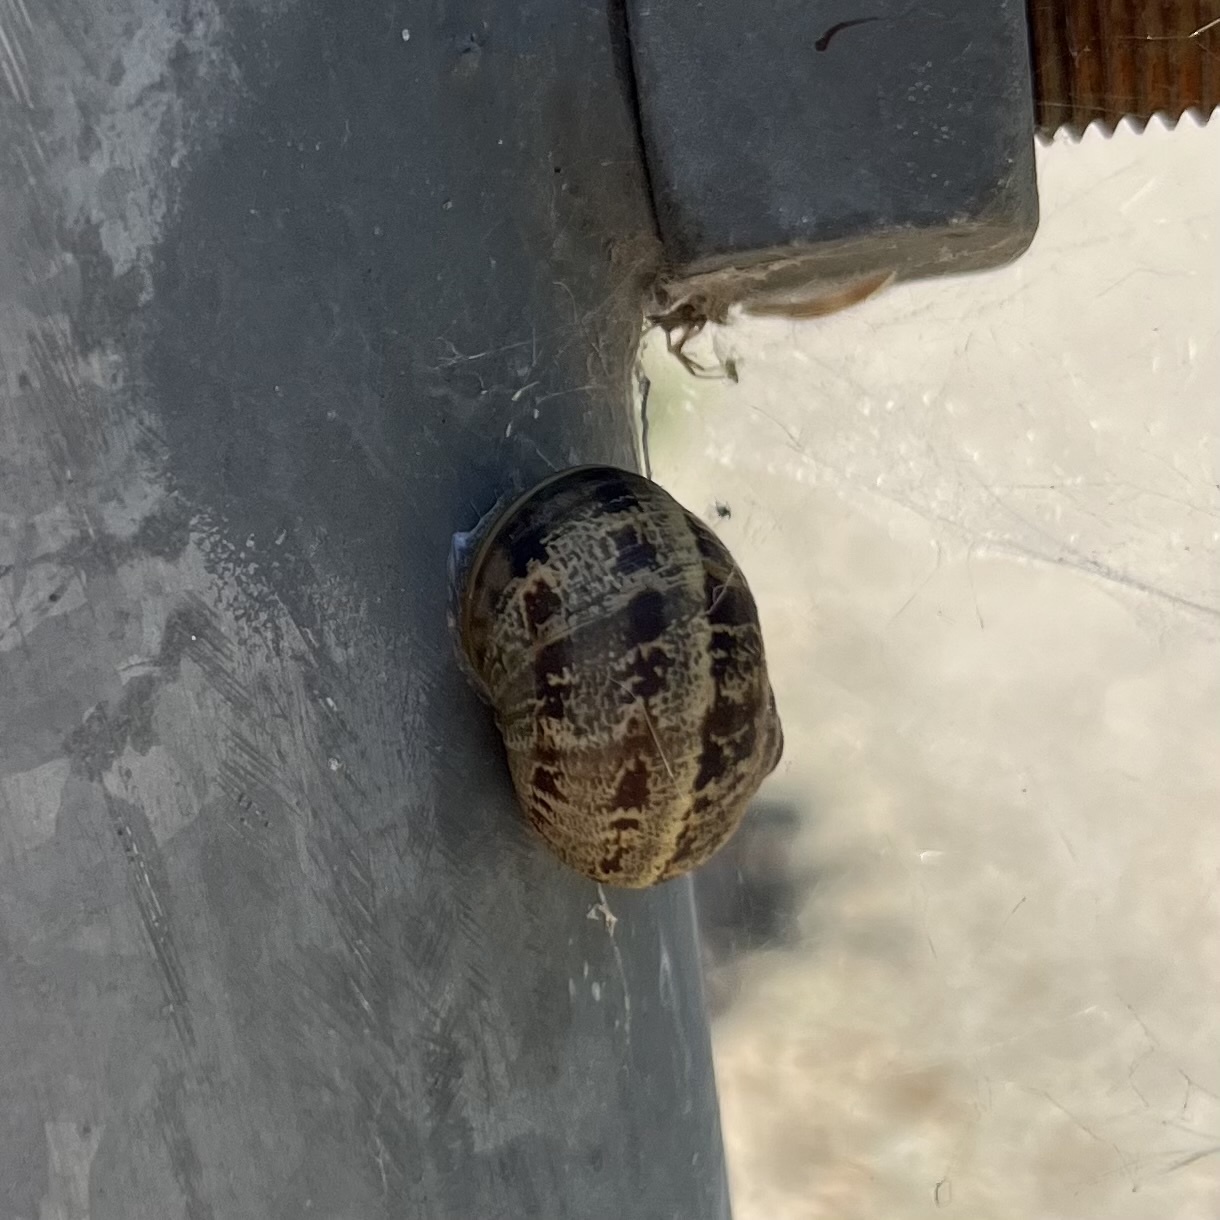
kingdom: Animalia
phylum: Mollusca
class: Gastropoda
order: Stylommatophora
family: Helicidae
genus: Cornu
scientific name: Cornu aspersum
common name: Brown garden snail
